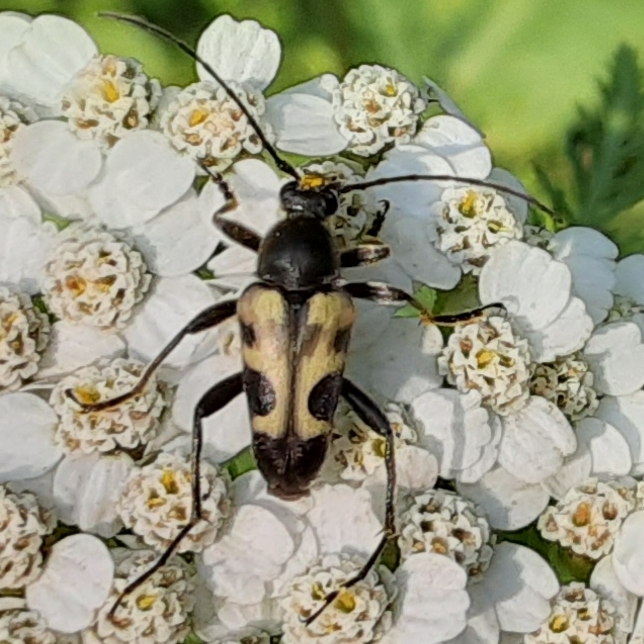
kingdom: Animalia
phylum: Arthropoda
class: Insecta
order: Coleoptera
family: Cerambycidae
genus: Judolia
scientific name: Judolia cordifera
